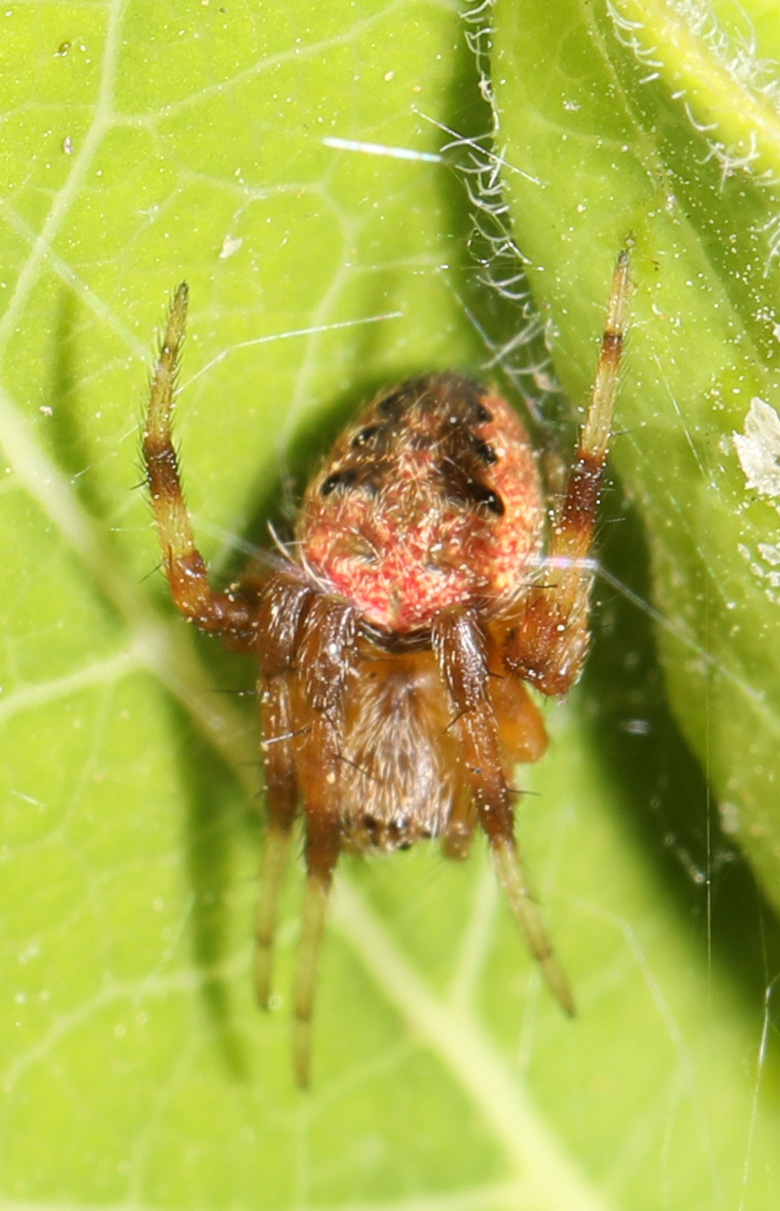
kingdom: Animalia
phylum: Arthropoda
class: Arachnida
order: Araneae
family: Araneidae
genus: Neoscona
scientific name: Neoscona arabesca
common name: Orb weavers
